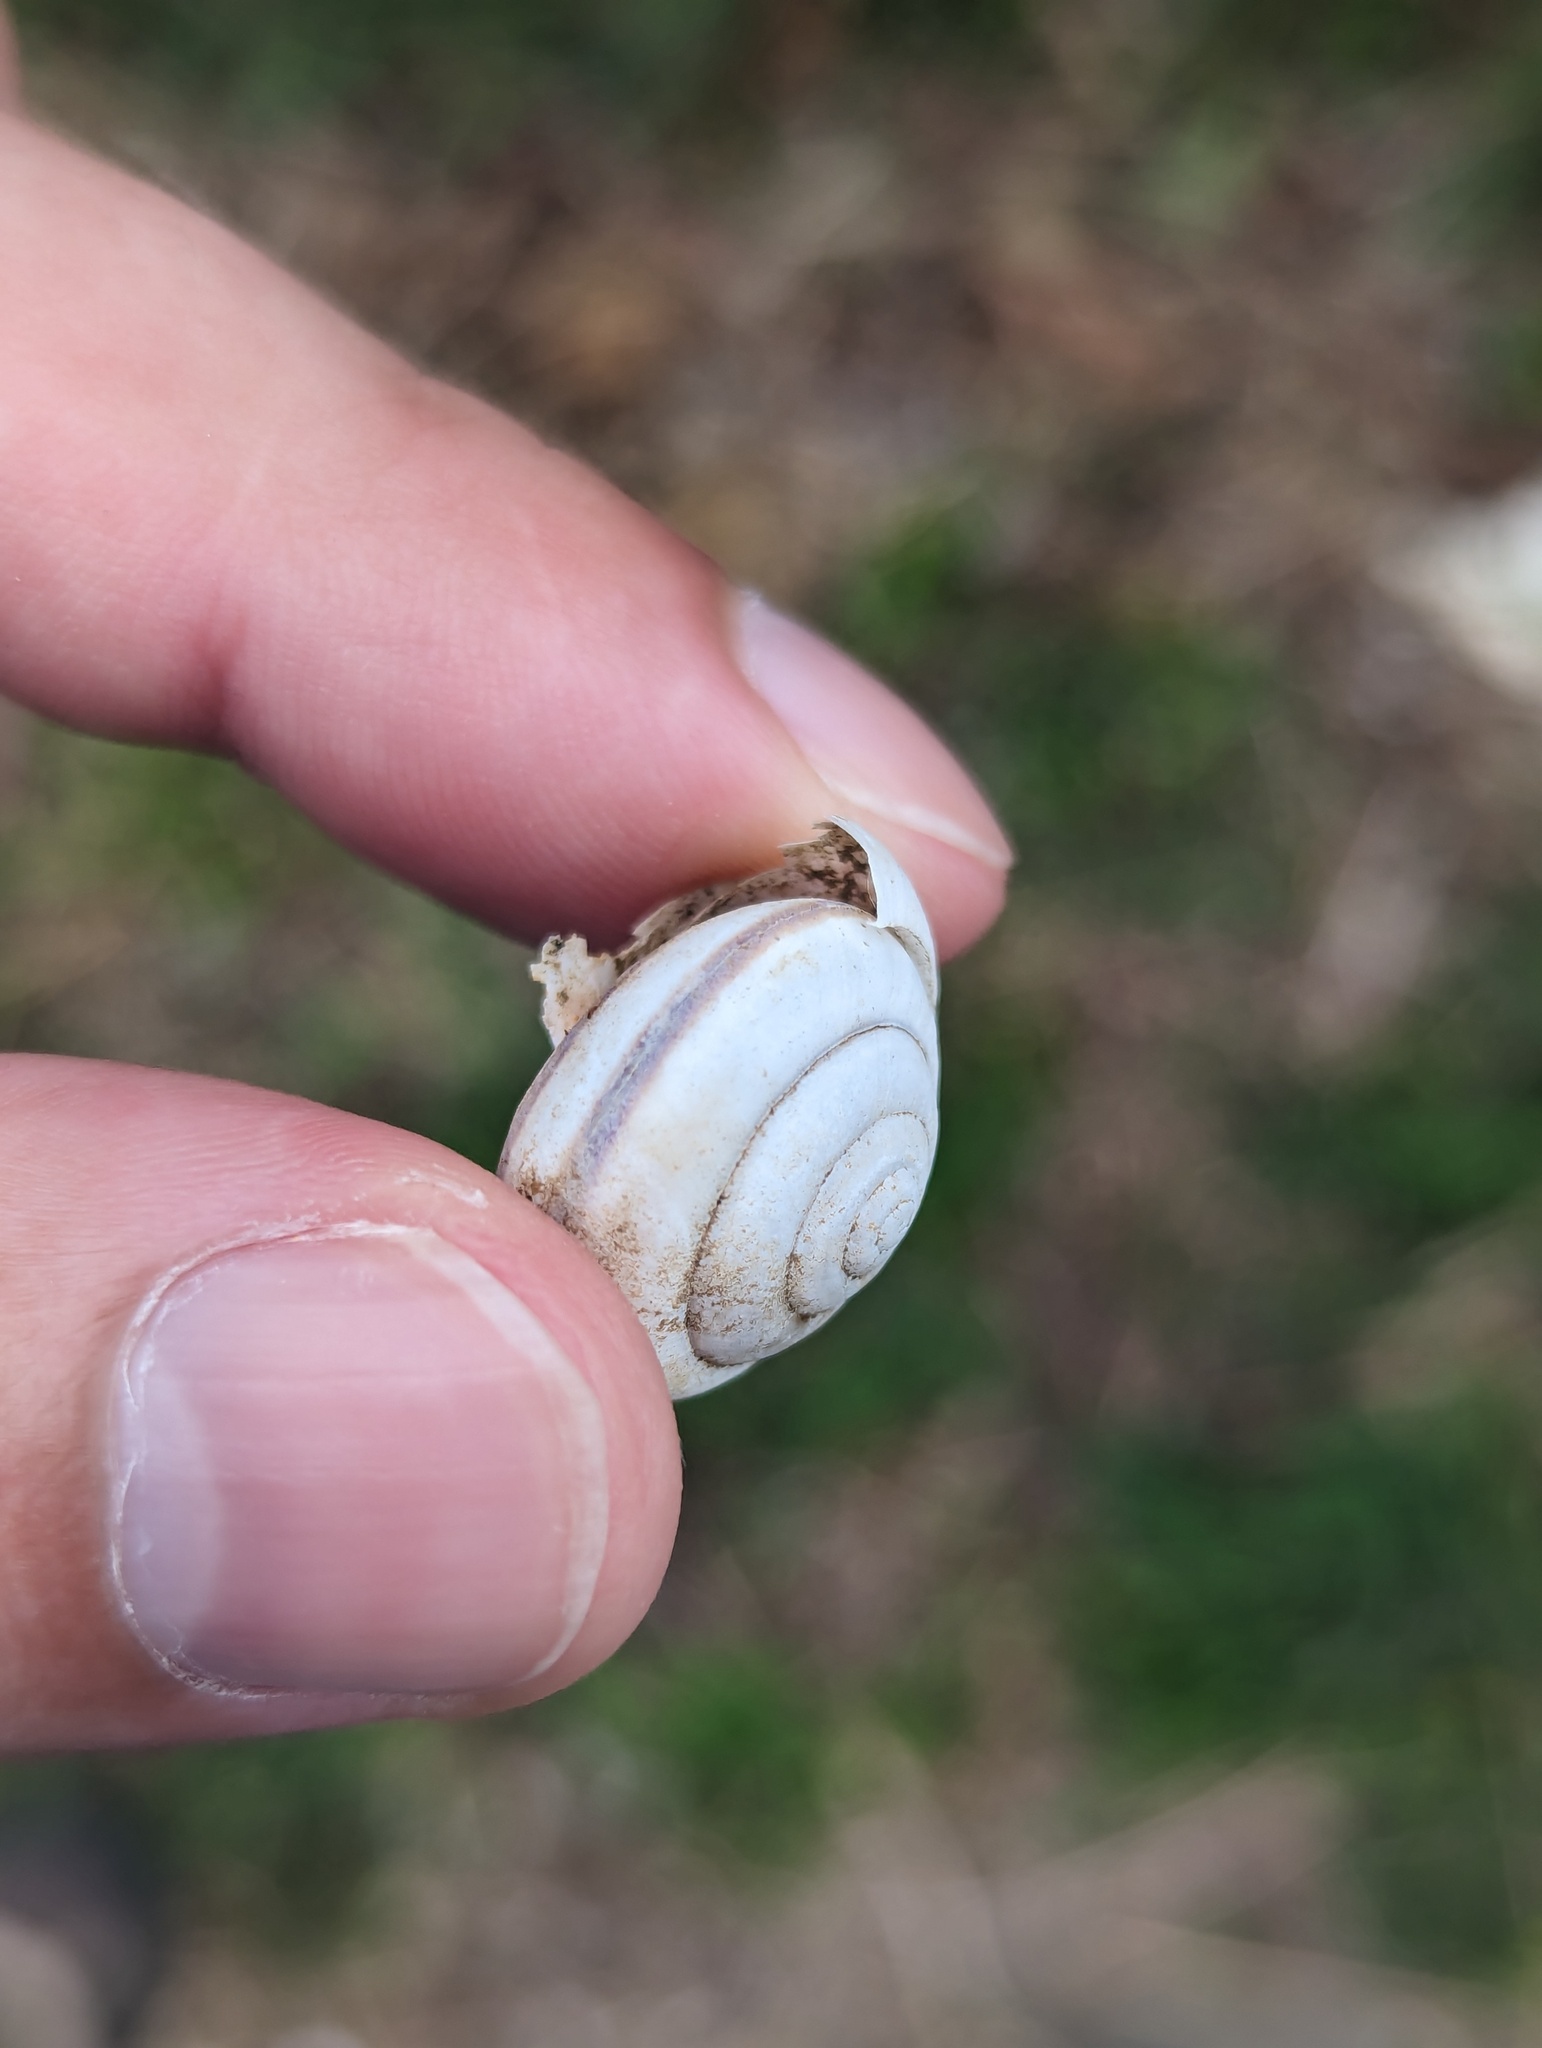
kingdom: Animalia
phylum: Mollusca
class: Gastropoda
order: Stylommatophora
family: Camaenidae
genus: Pancala
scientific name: Pancala batanica
